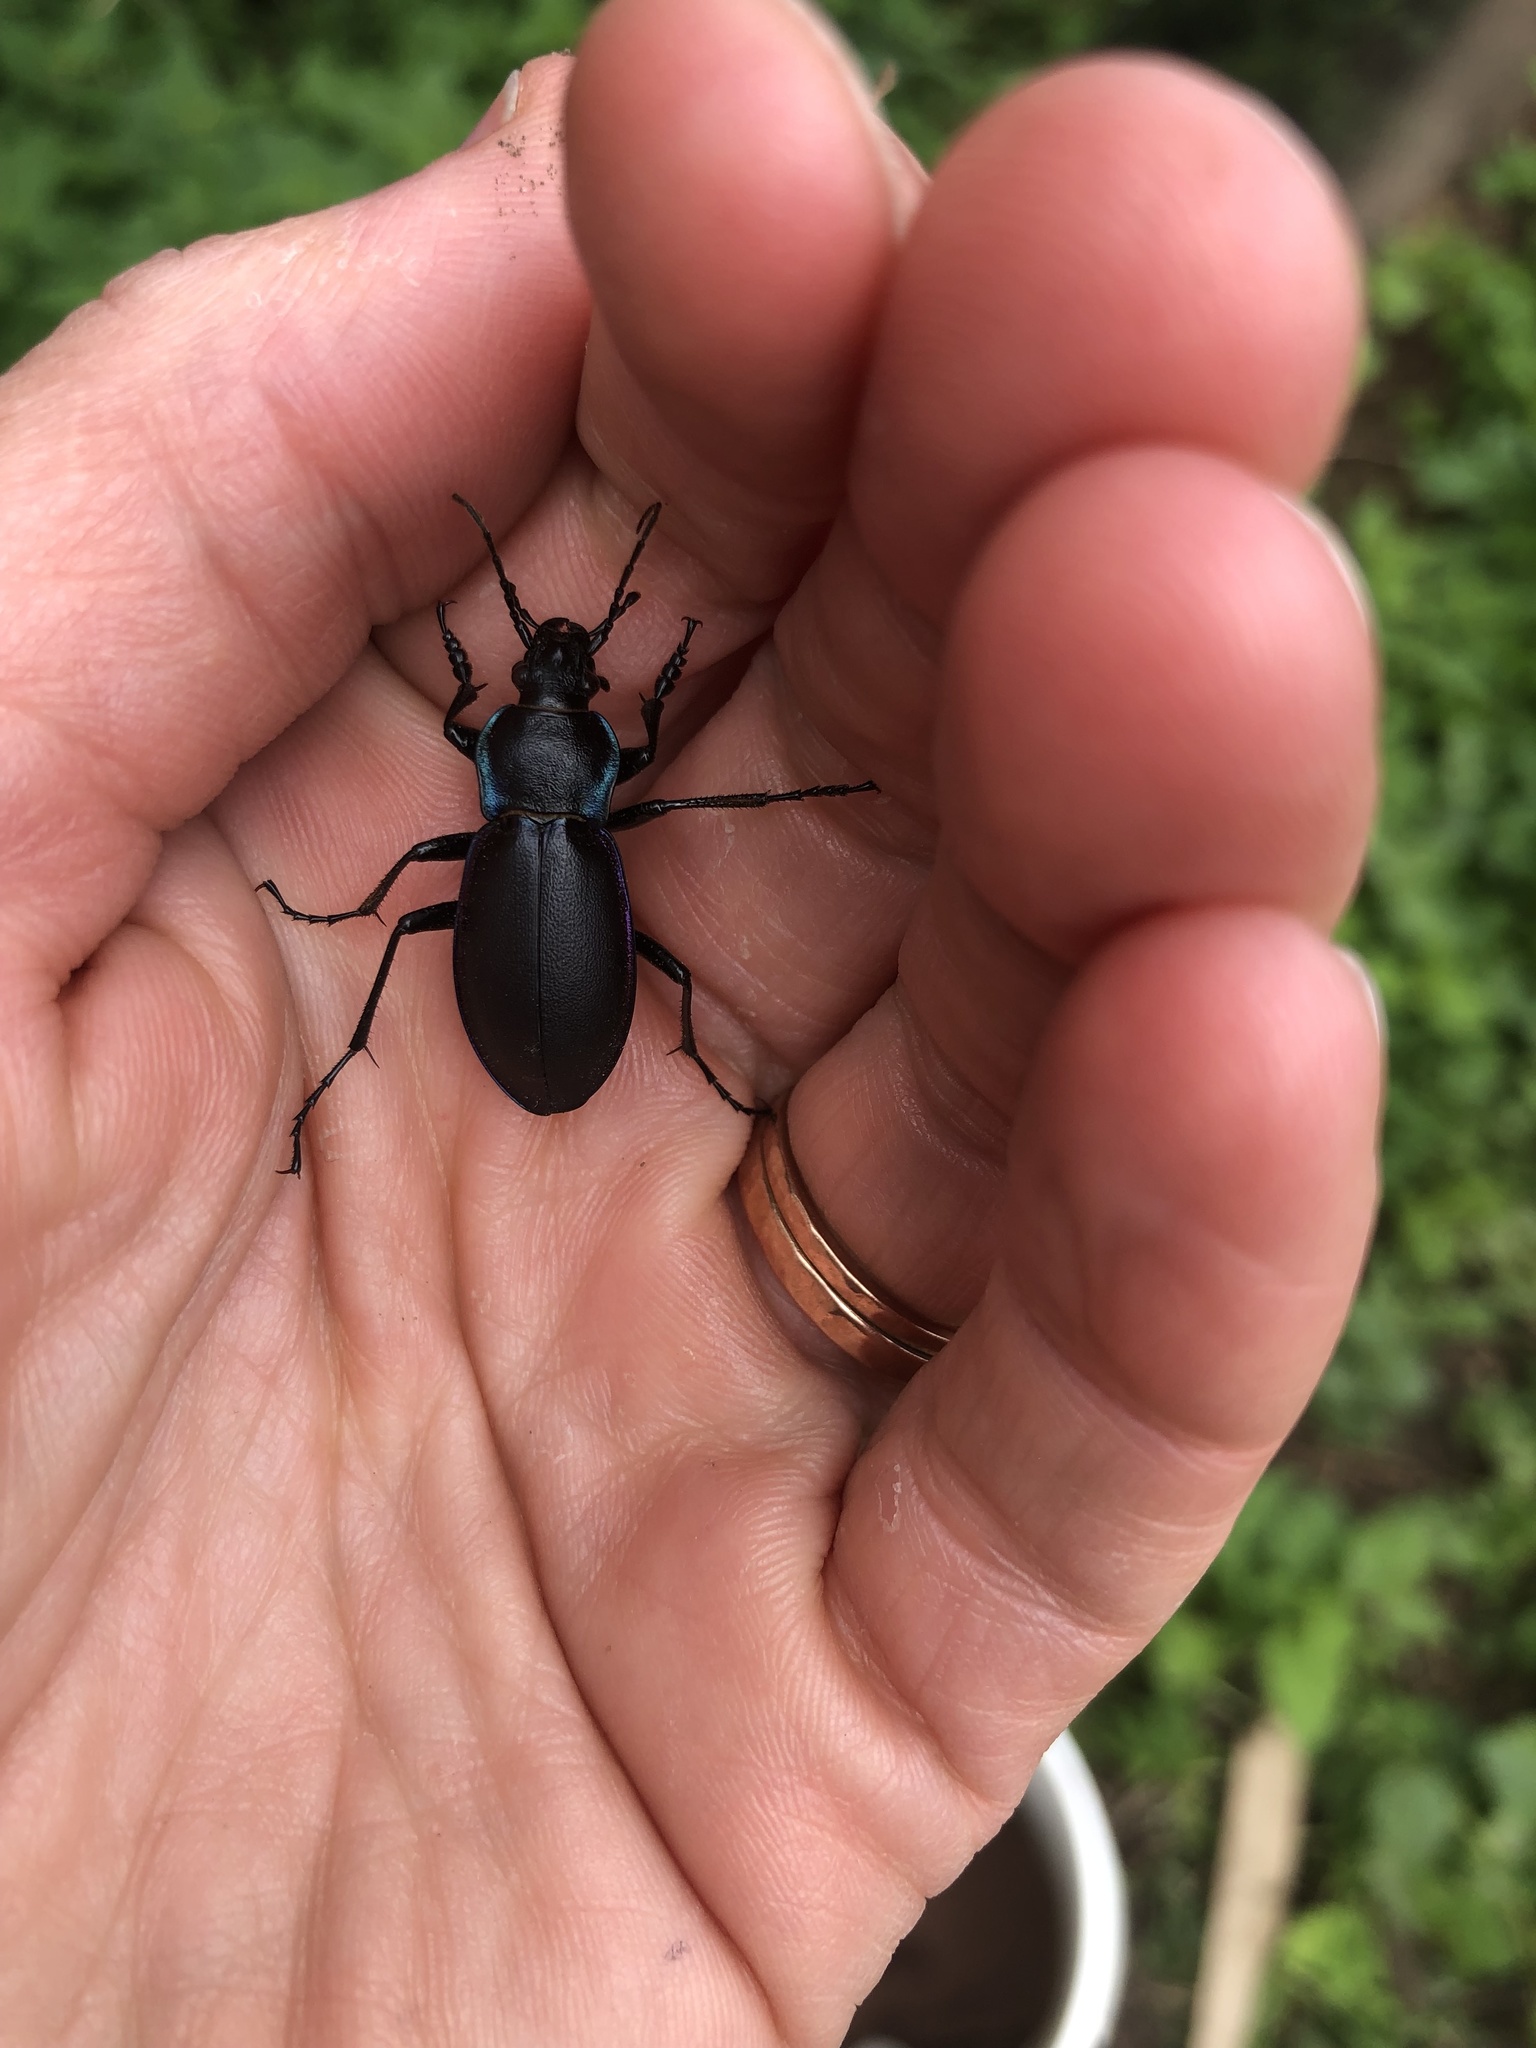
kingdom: Animalia
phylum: Arthropoda
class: Insecta
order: Coleoptera
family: Carabidae
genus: Carabus
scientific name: Carabus violaceus
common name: Violet ground beetle
